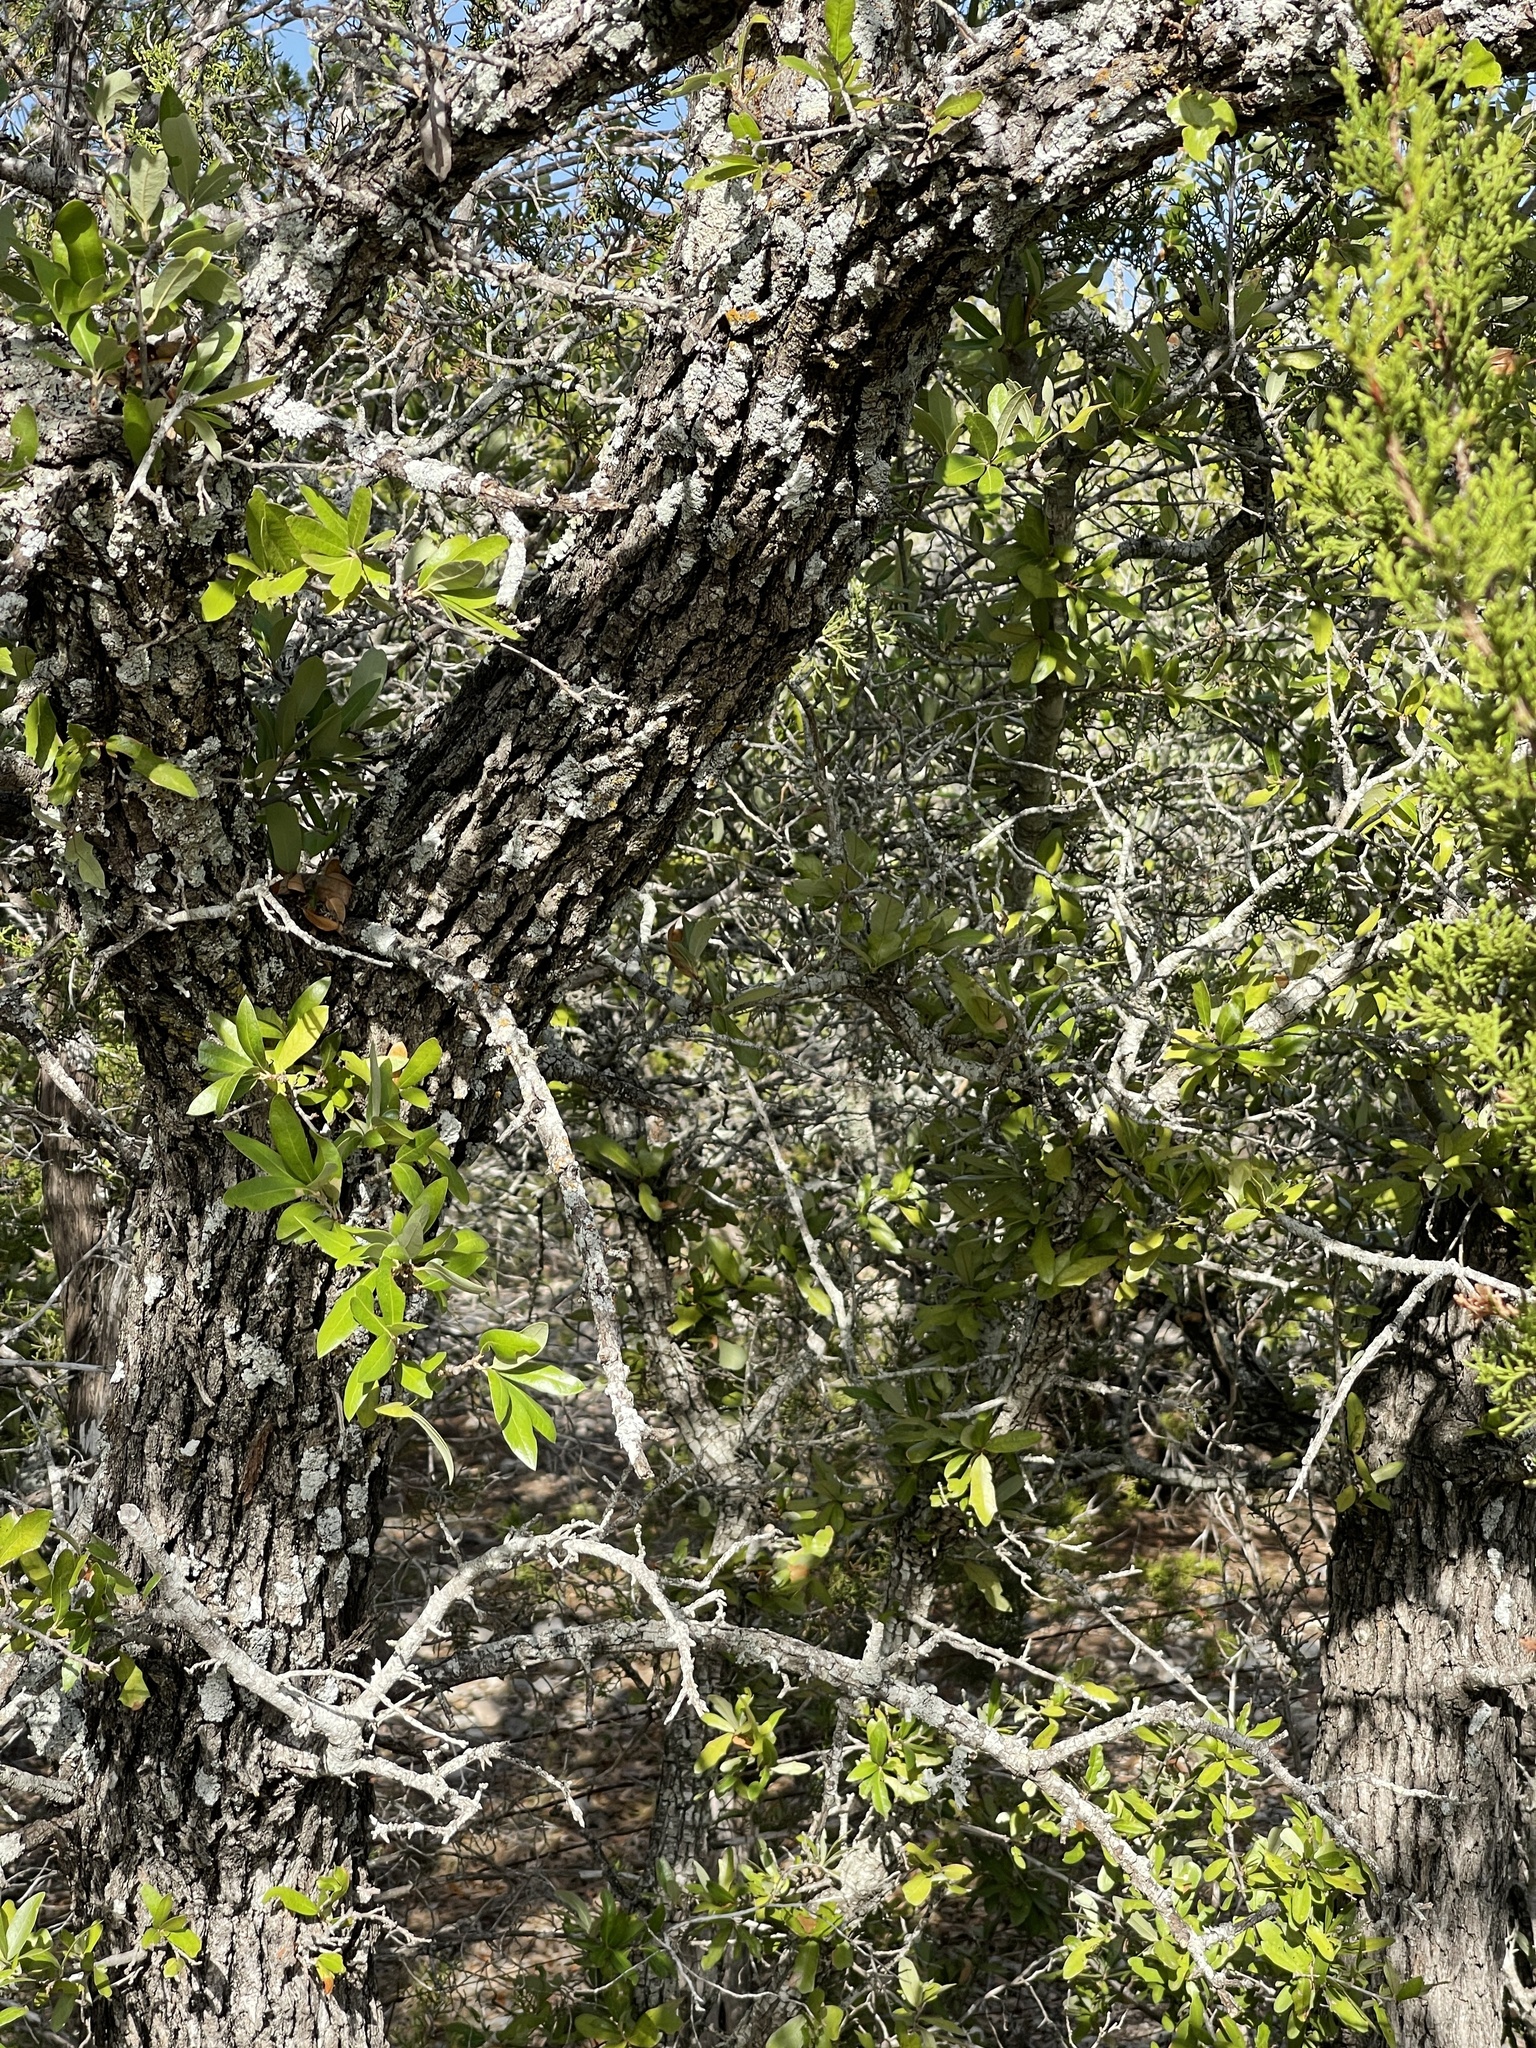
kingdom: Plantae
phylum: Tracheophyta
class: Magnoliopsida
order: Fagales
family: Fagaceae
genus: Quercus
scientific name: Quercus fusiformis
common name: Texas live oak
